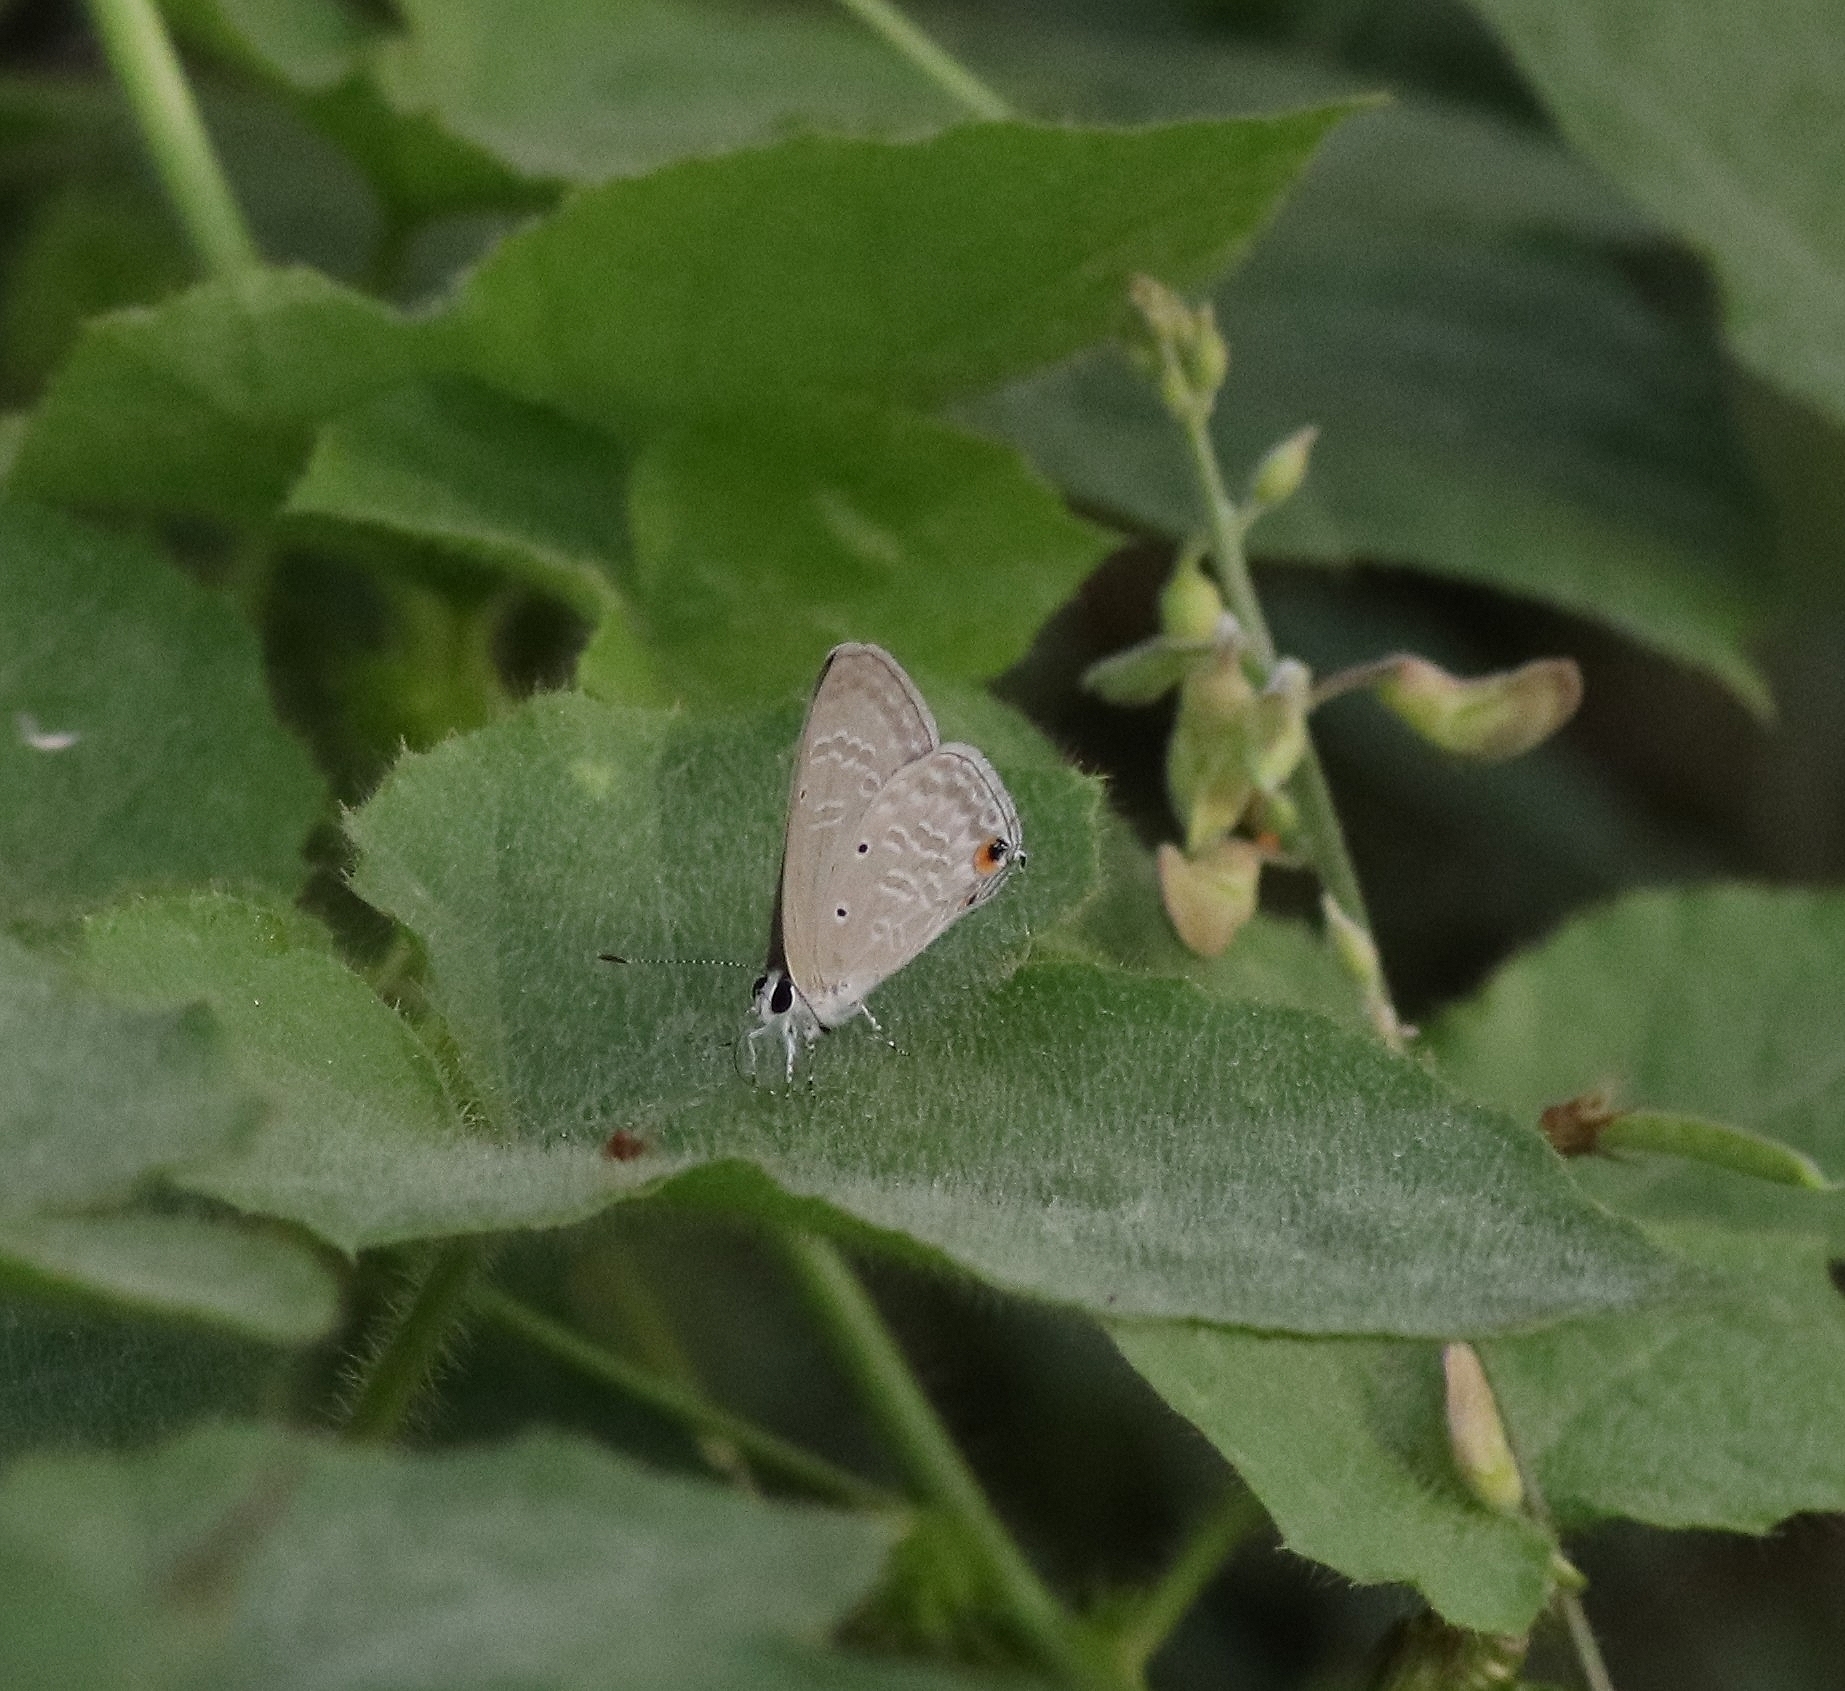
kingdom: Animalia
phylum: Arthropoda
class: Insecta
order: Lepidoptera
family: Lycaenidae
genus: Catochrysops
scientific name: Catochrysops strabo
